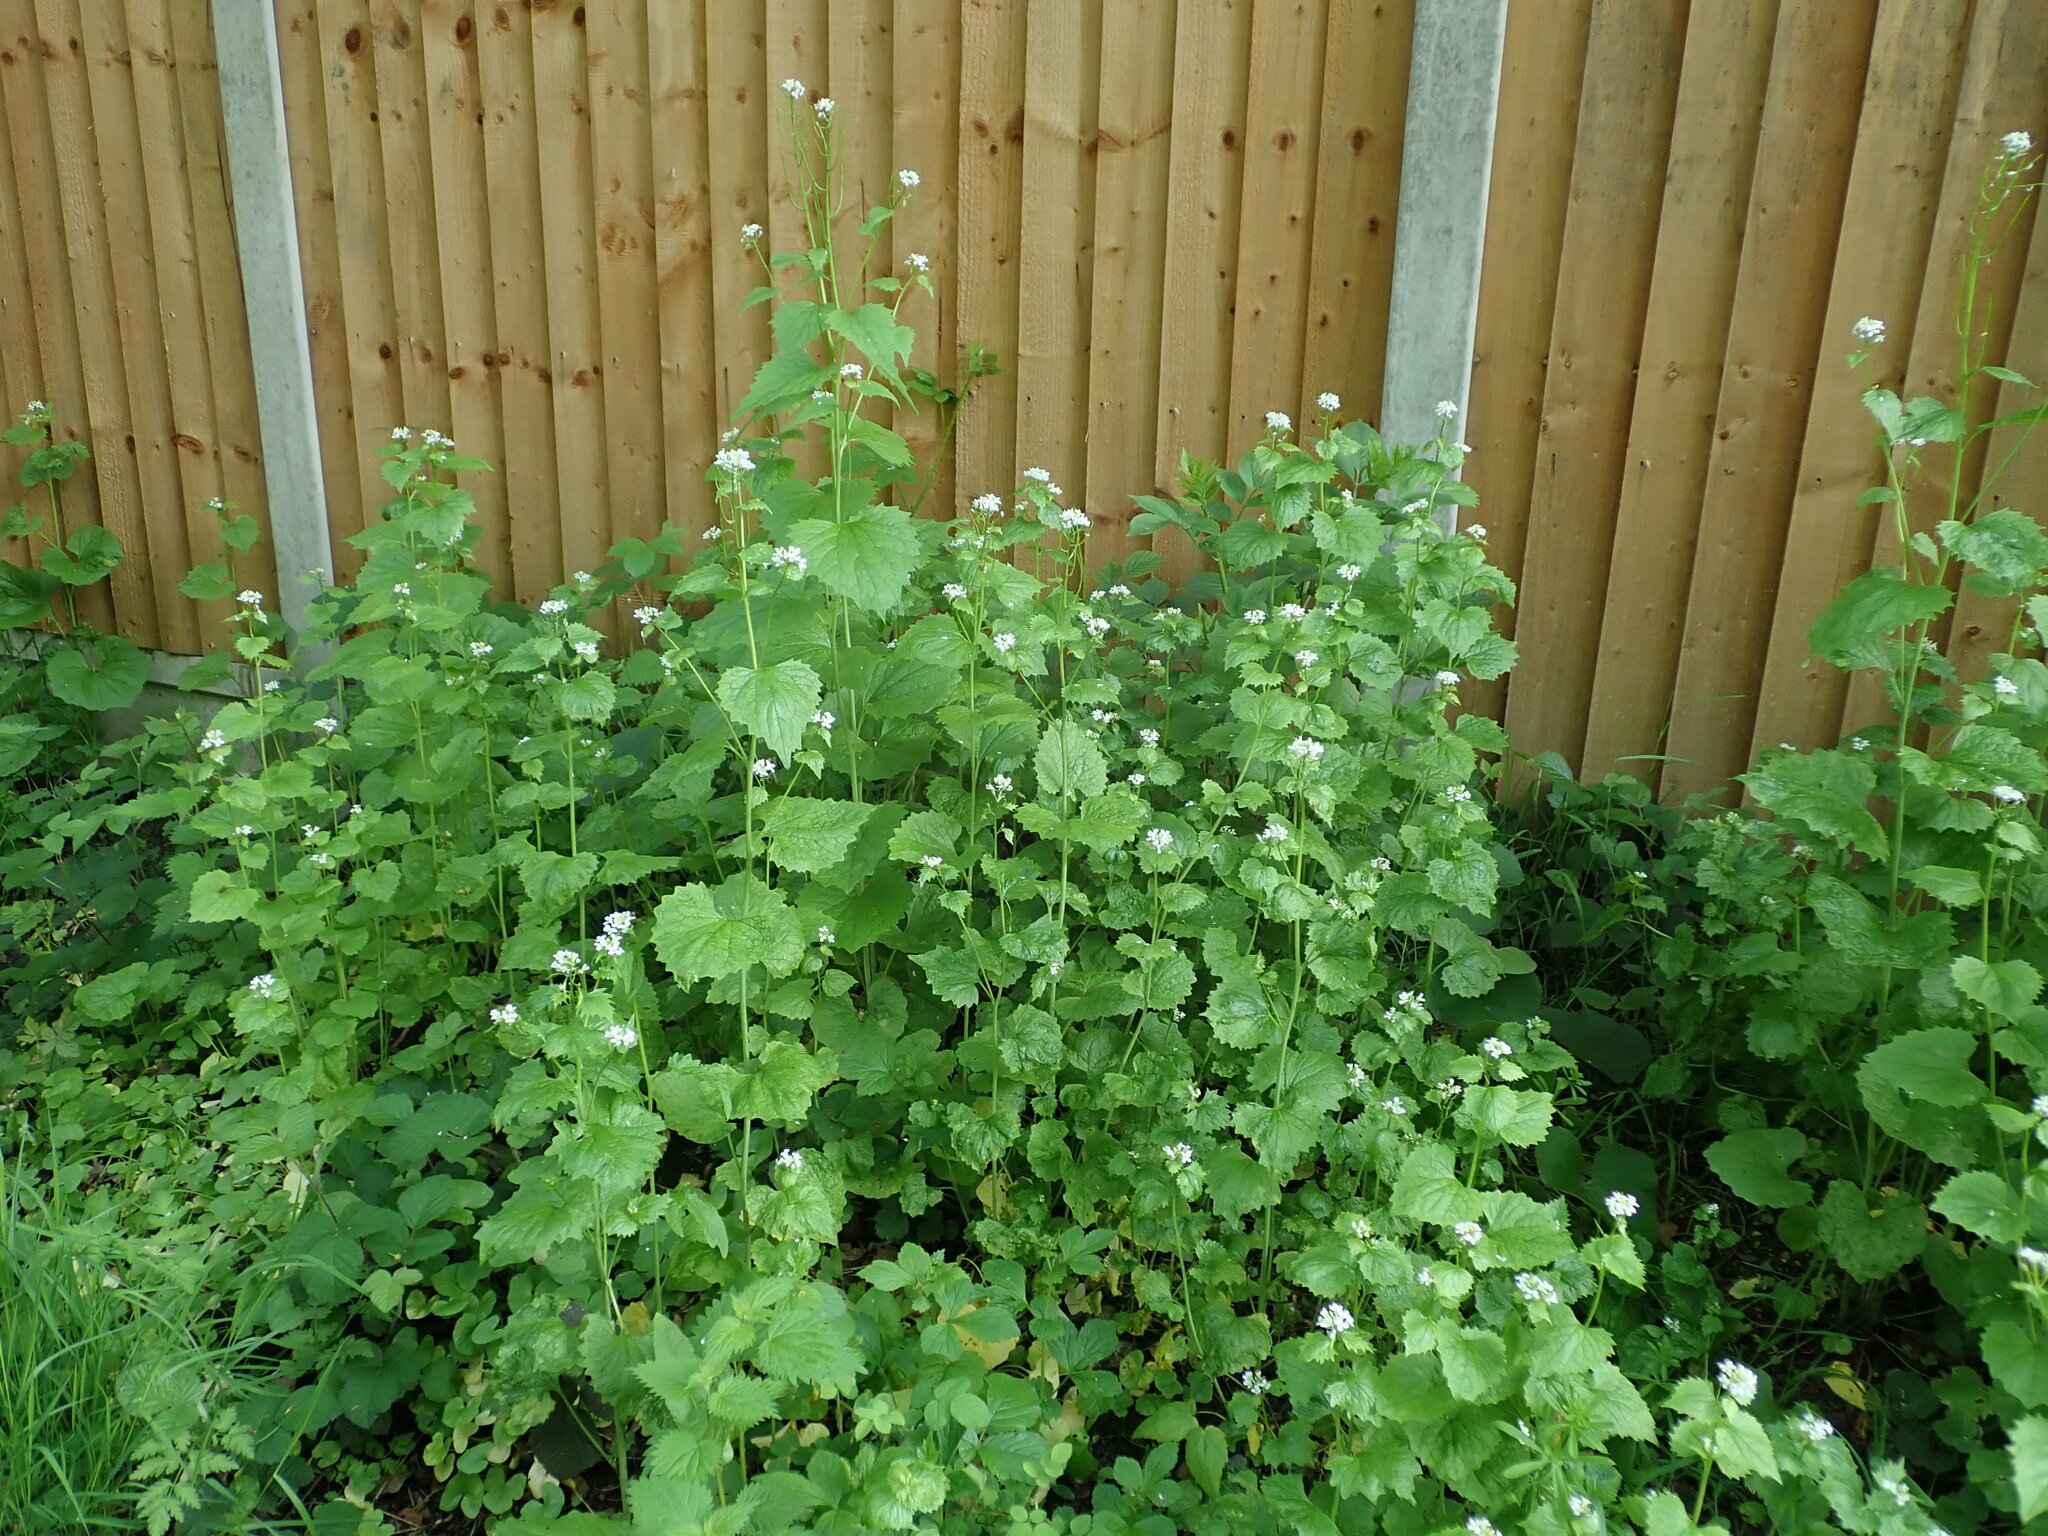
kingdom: Plantae
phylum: Tracheophyta
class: Magnoliopsida
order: Brassicales
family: Brassicaceae
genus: Alliaria
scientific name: Alliaria petiolata
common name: Garlic mustard
